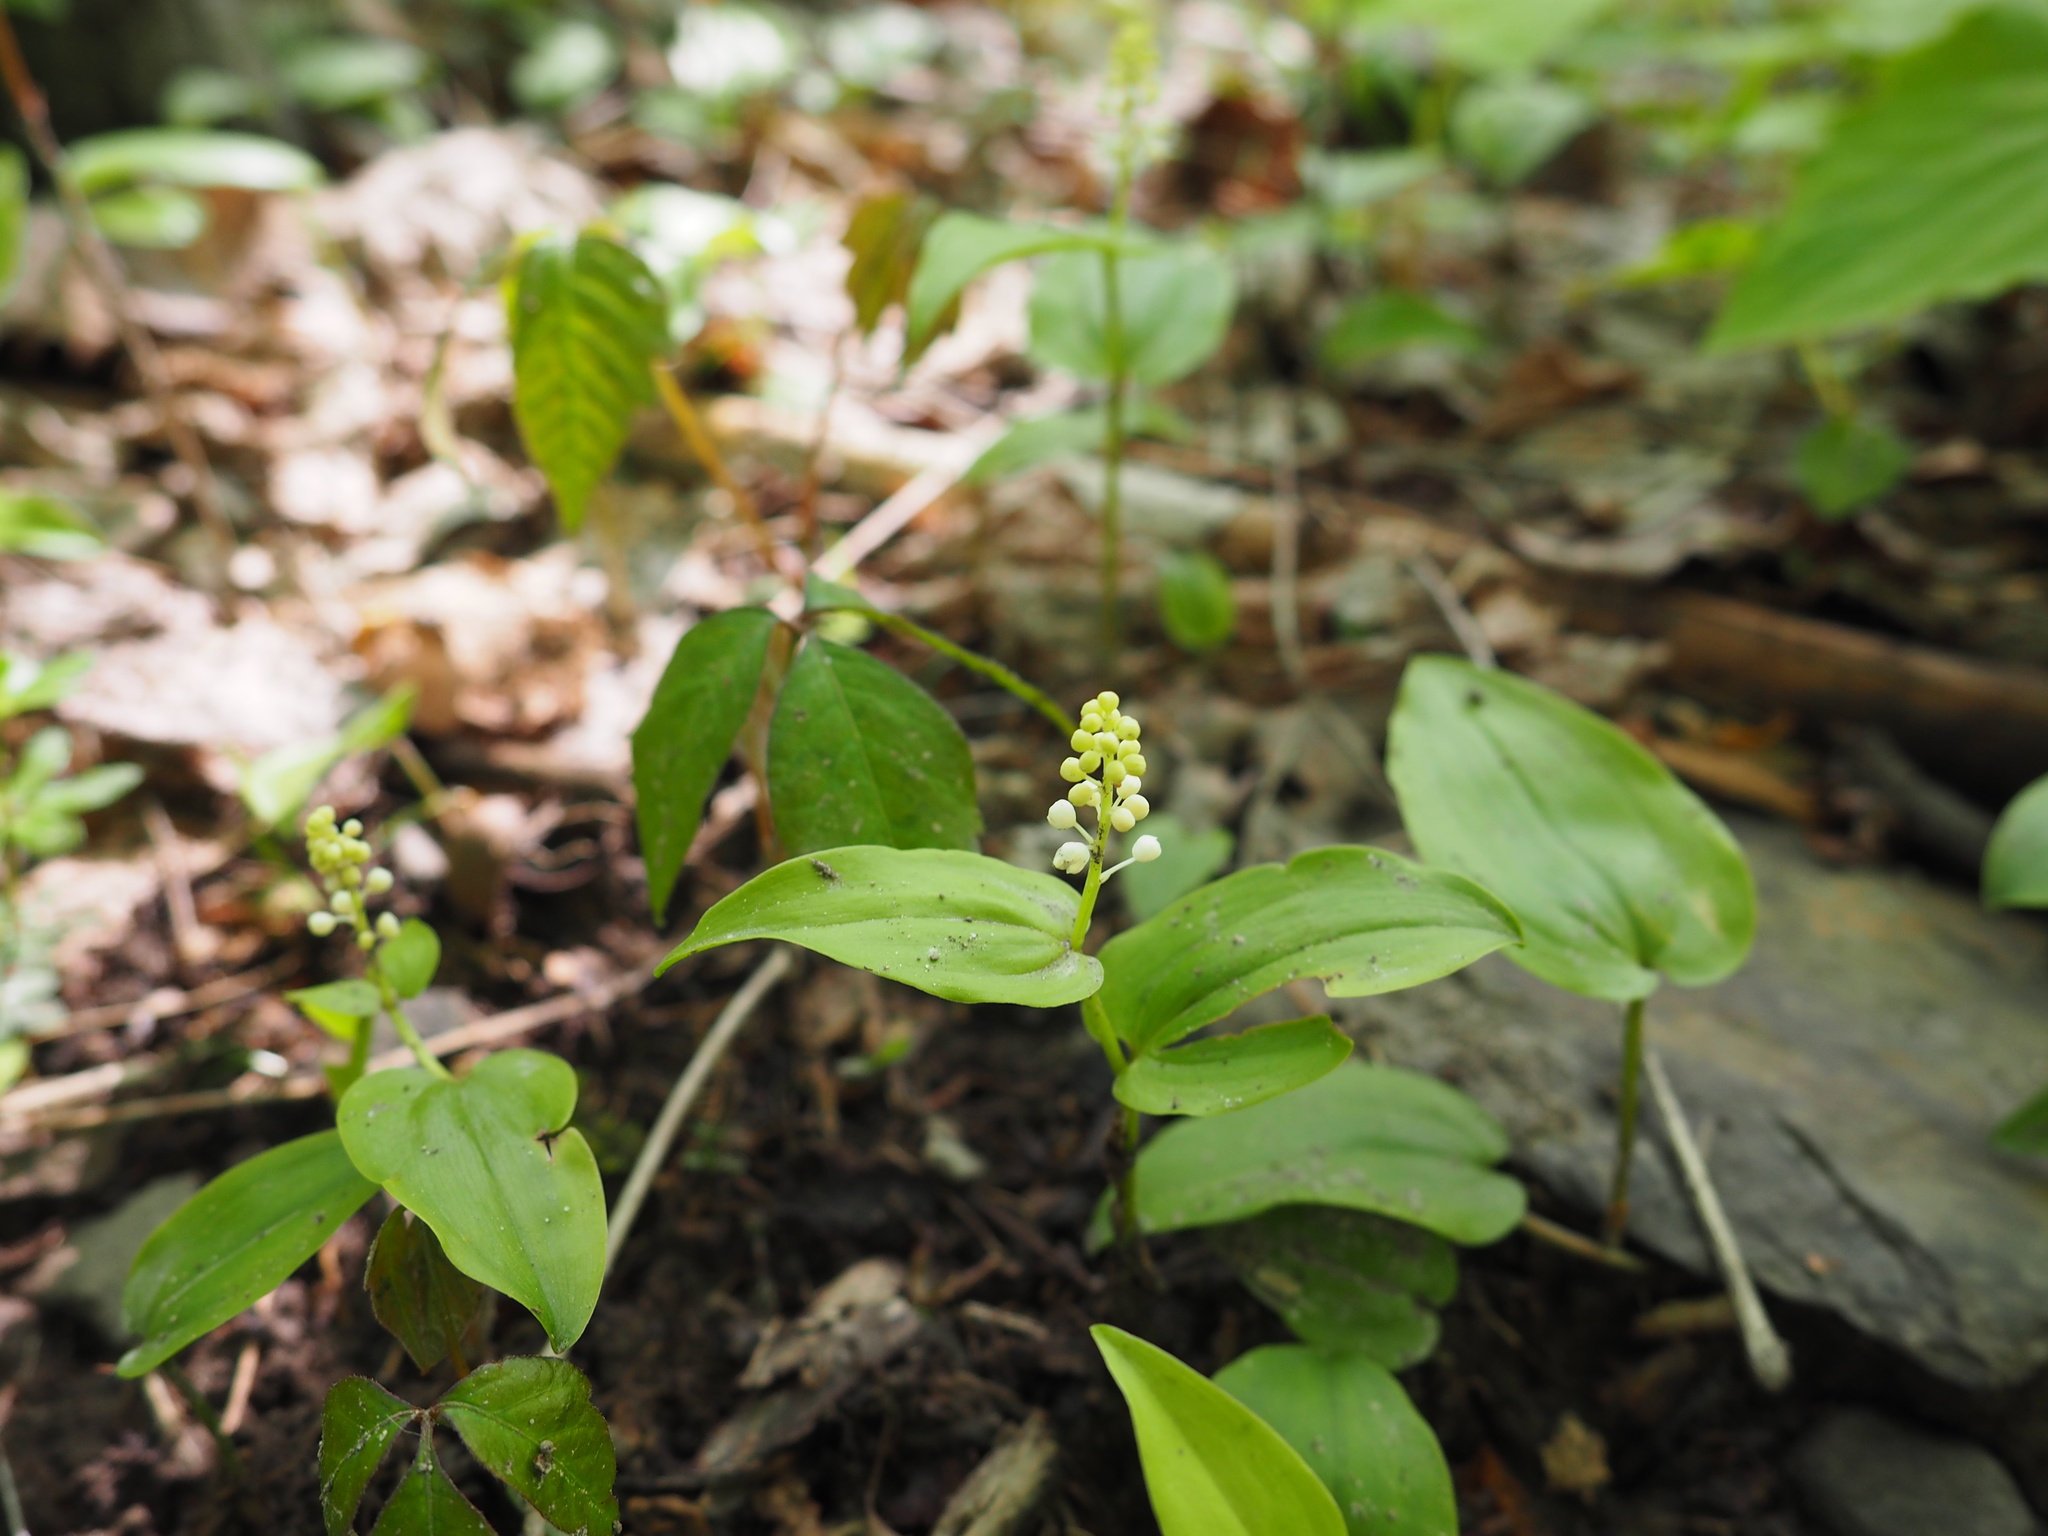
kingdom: Plantae
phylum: Tracheophyta
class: Liliopsida
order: Asparagales
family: Asparagaceae
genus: Maianthemum
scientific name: Maianthemum canadense
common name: False lily-of-the-valley
